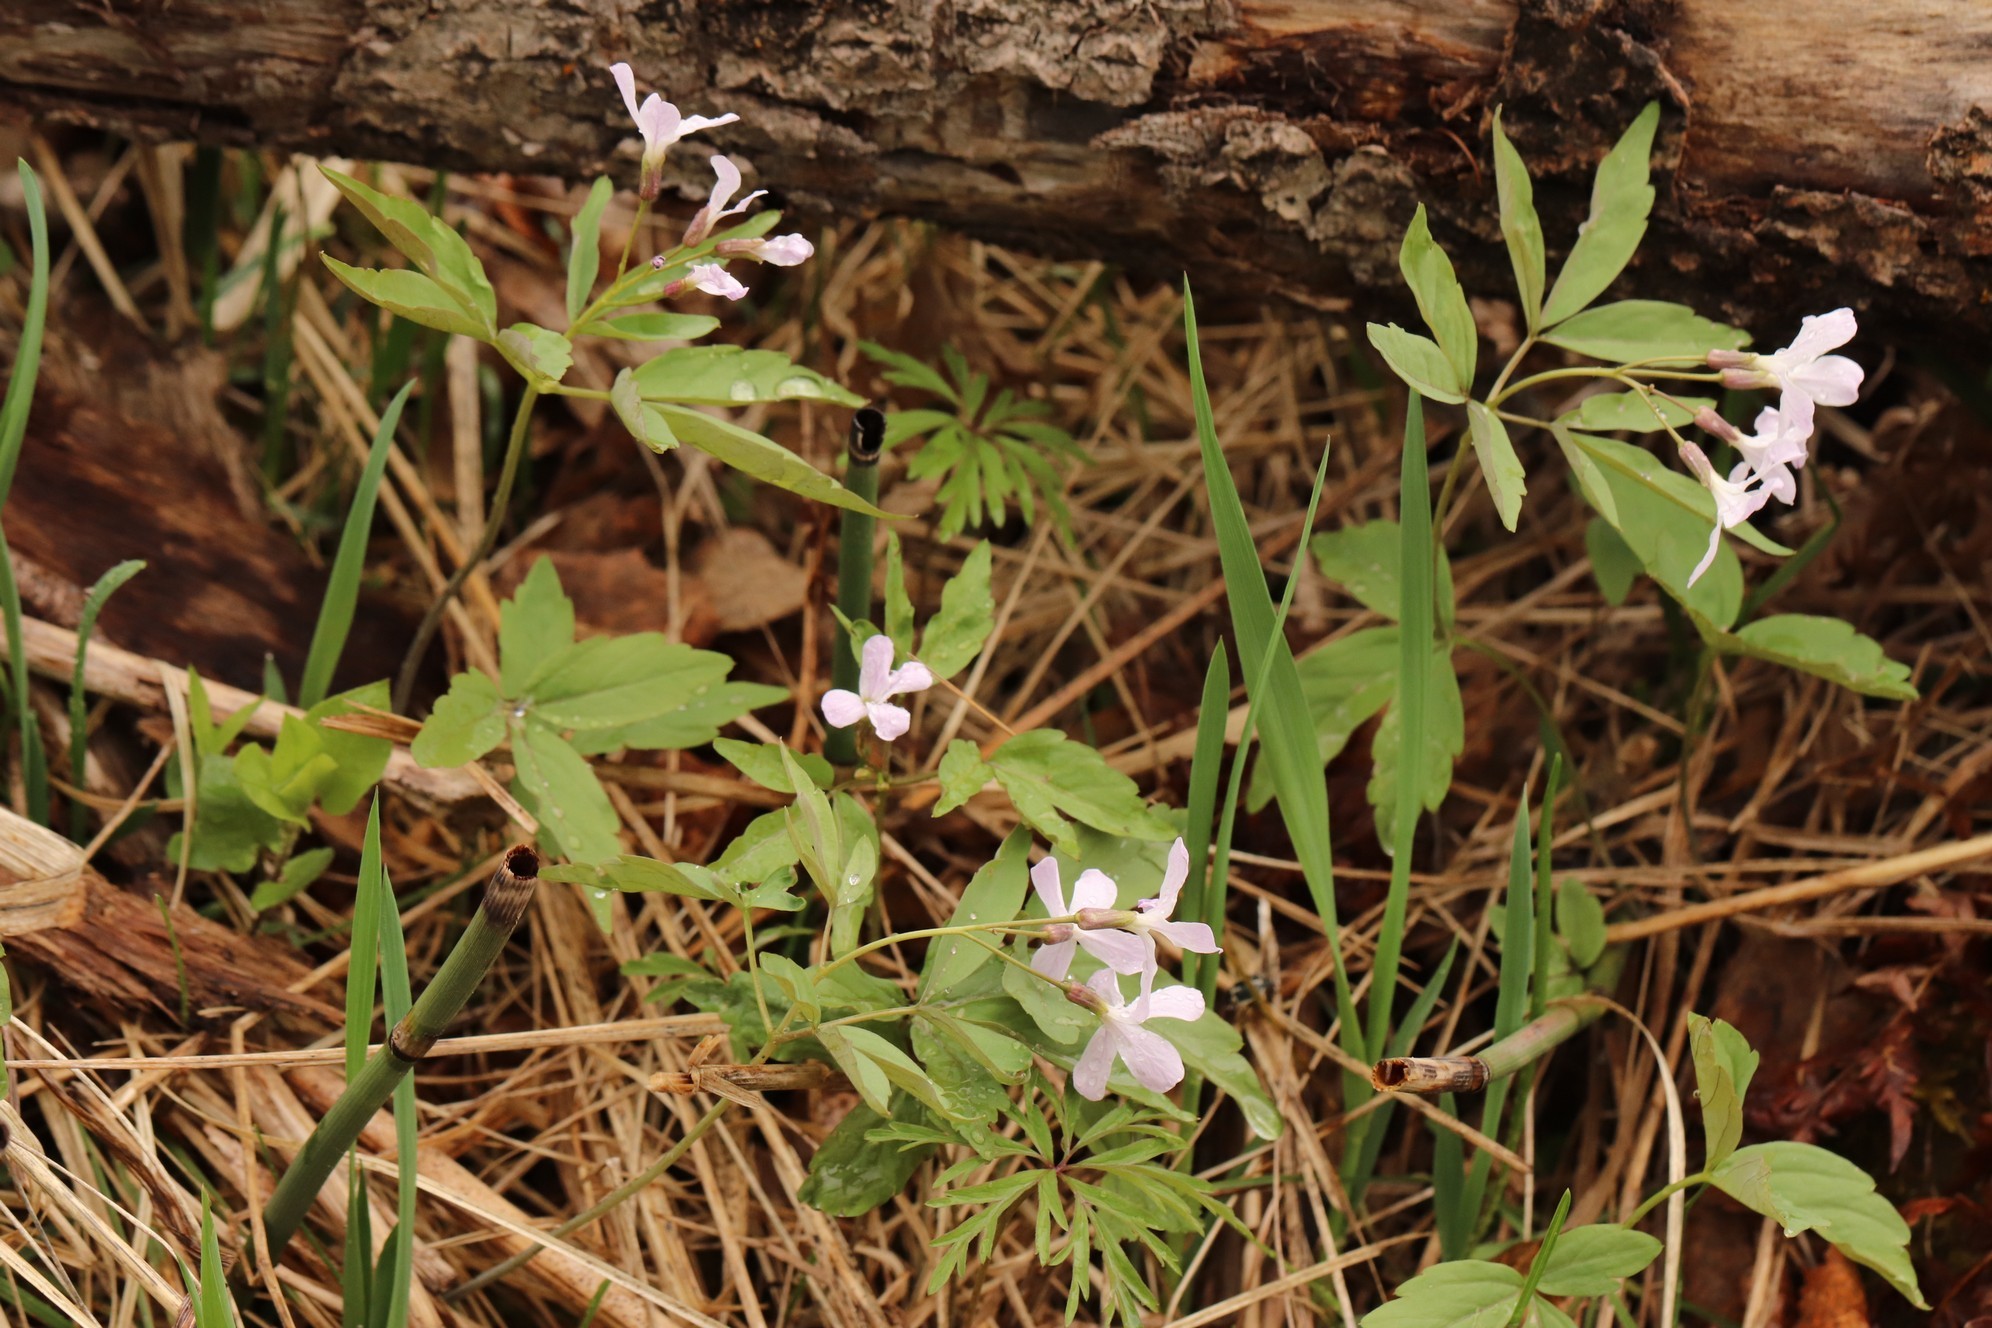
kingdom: Plantae
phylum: Tracheophyta
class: Magnoliopsida
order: Brassicales
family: Brassicaceae
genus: Cardamine
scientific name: Cardamine altaica
